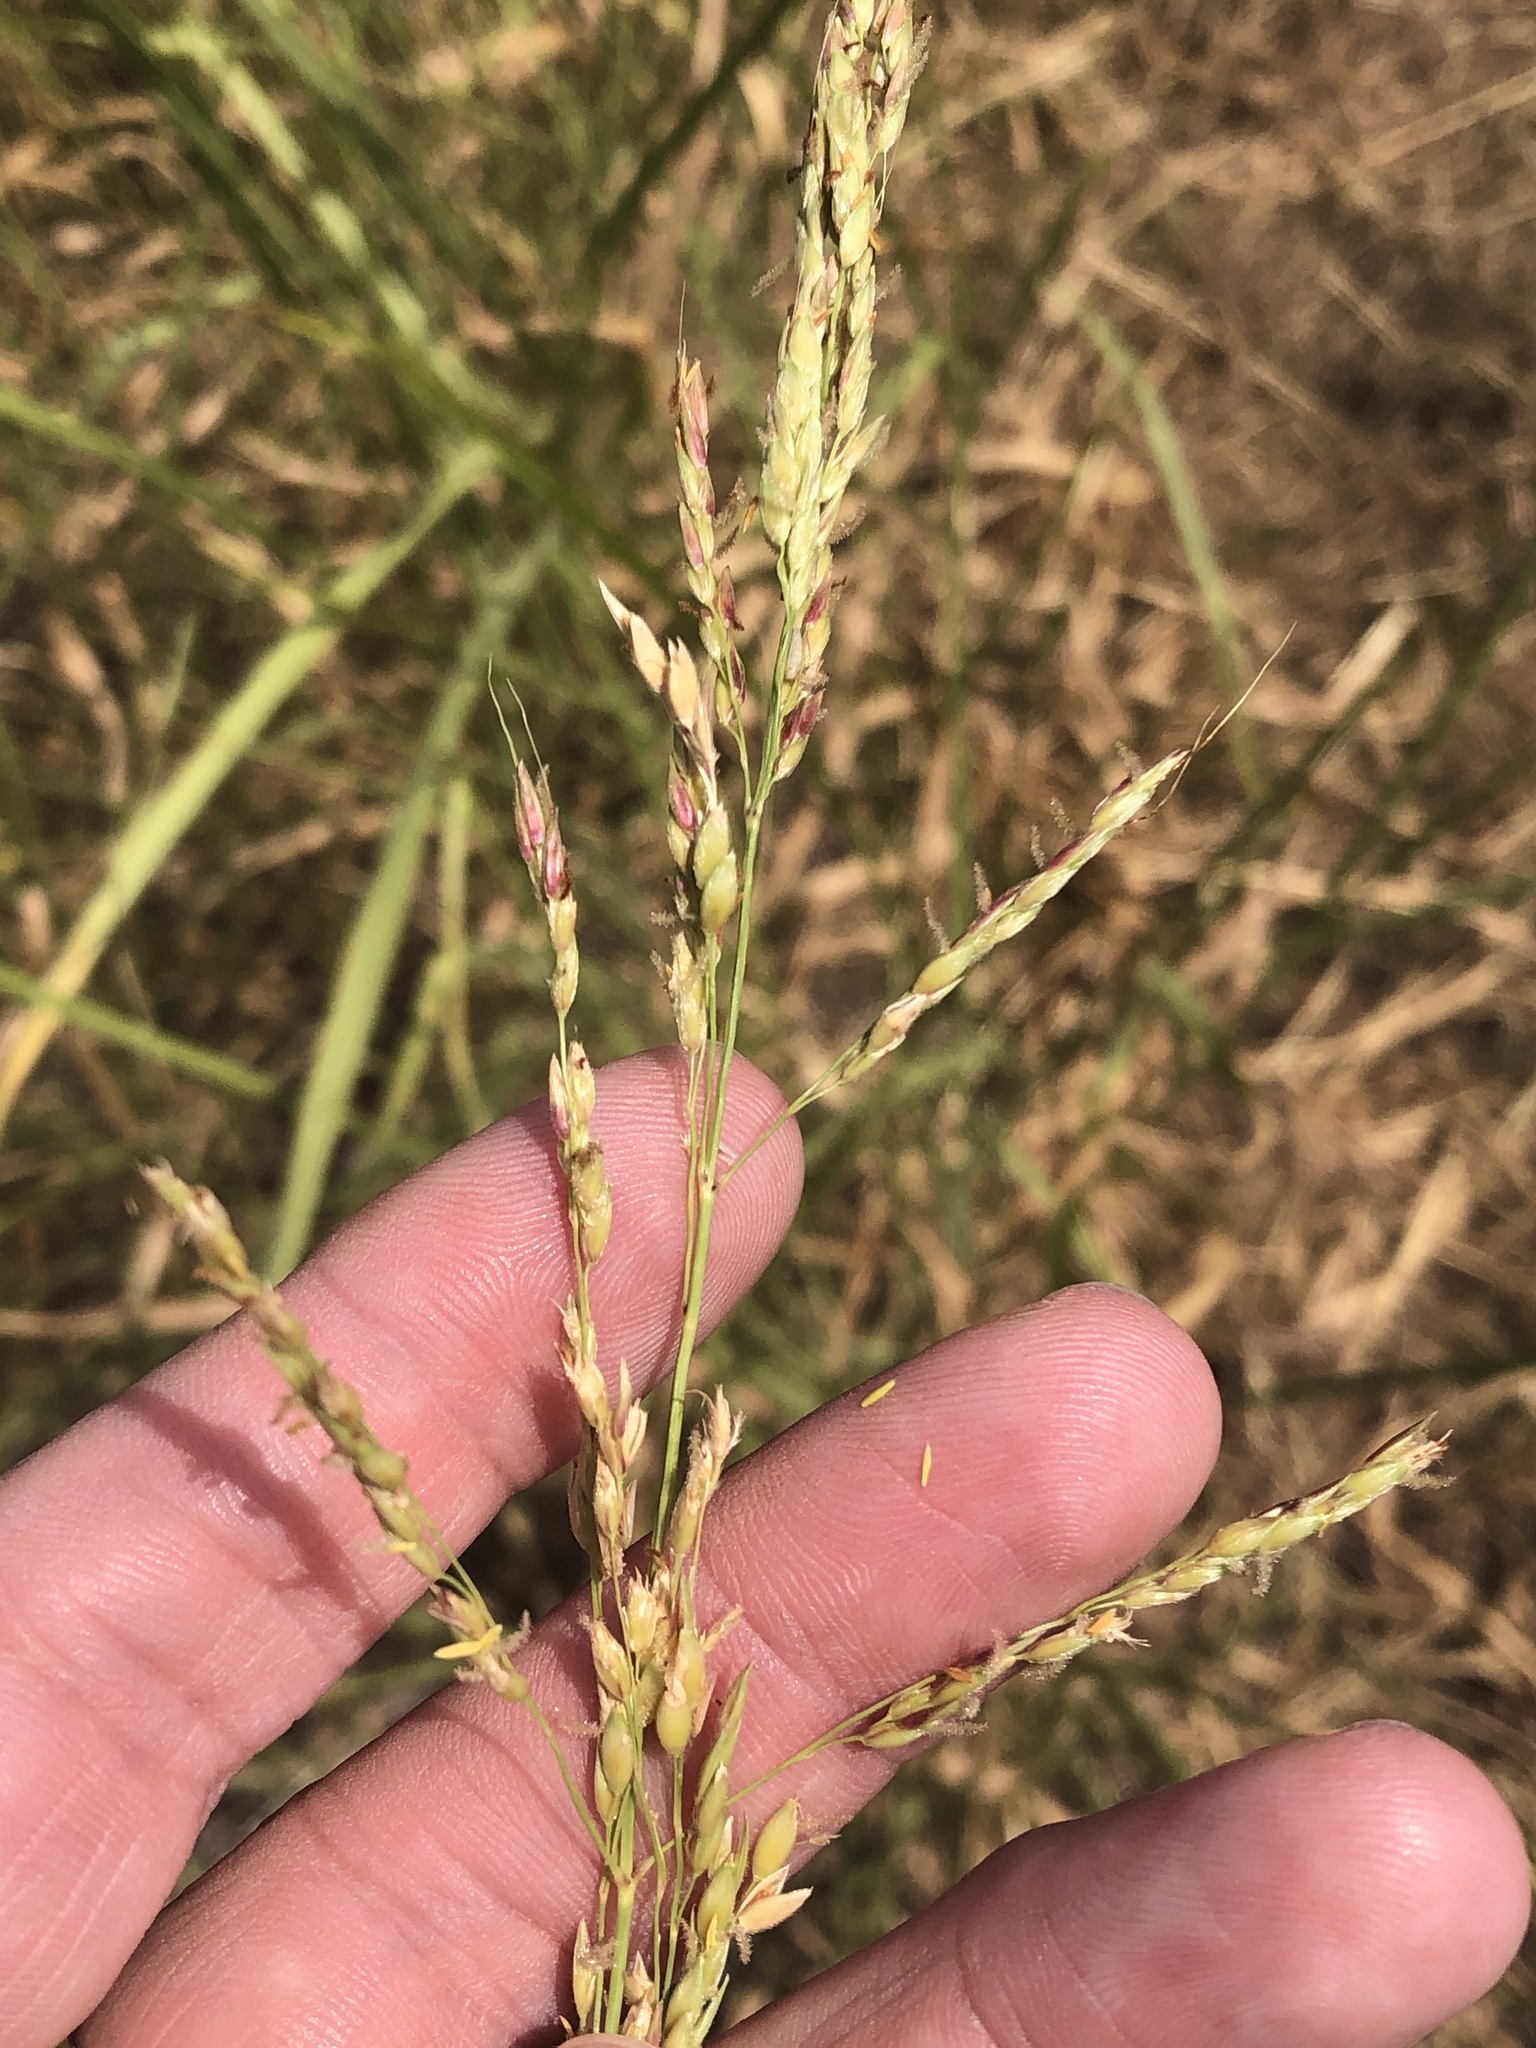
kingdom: Plantae
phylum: Tracheophyta
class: Liliopsida
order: Poales
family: Poaceae
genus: Sorghum
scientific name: Sorghum halepense
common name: Johnson-grass
